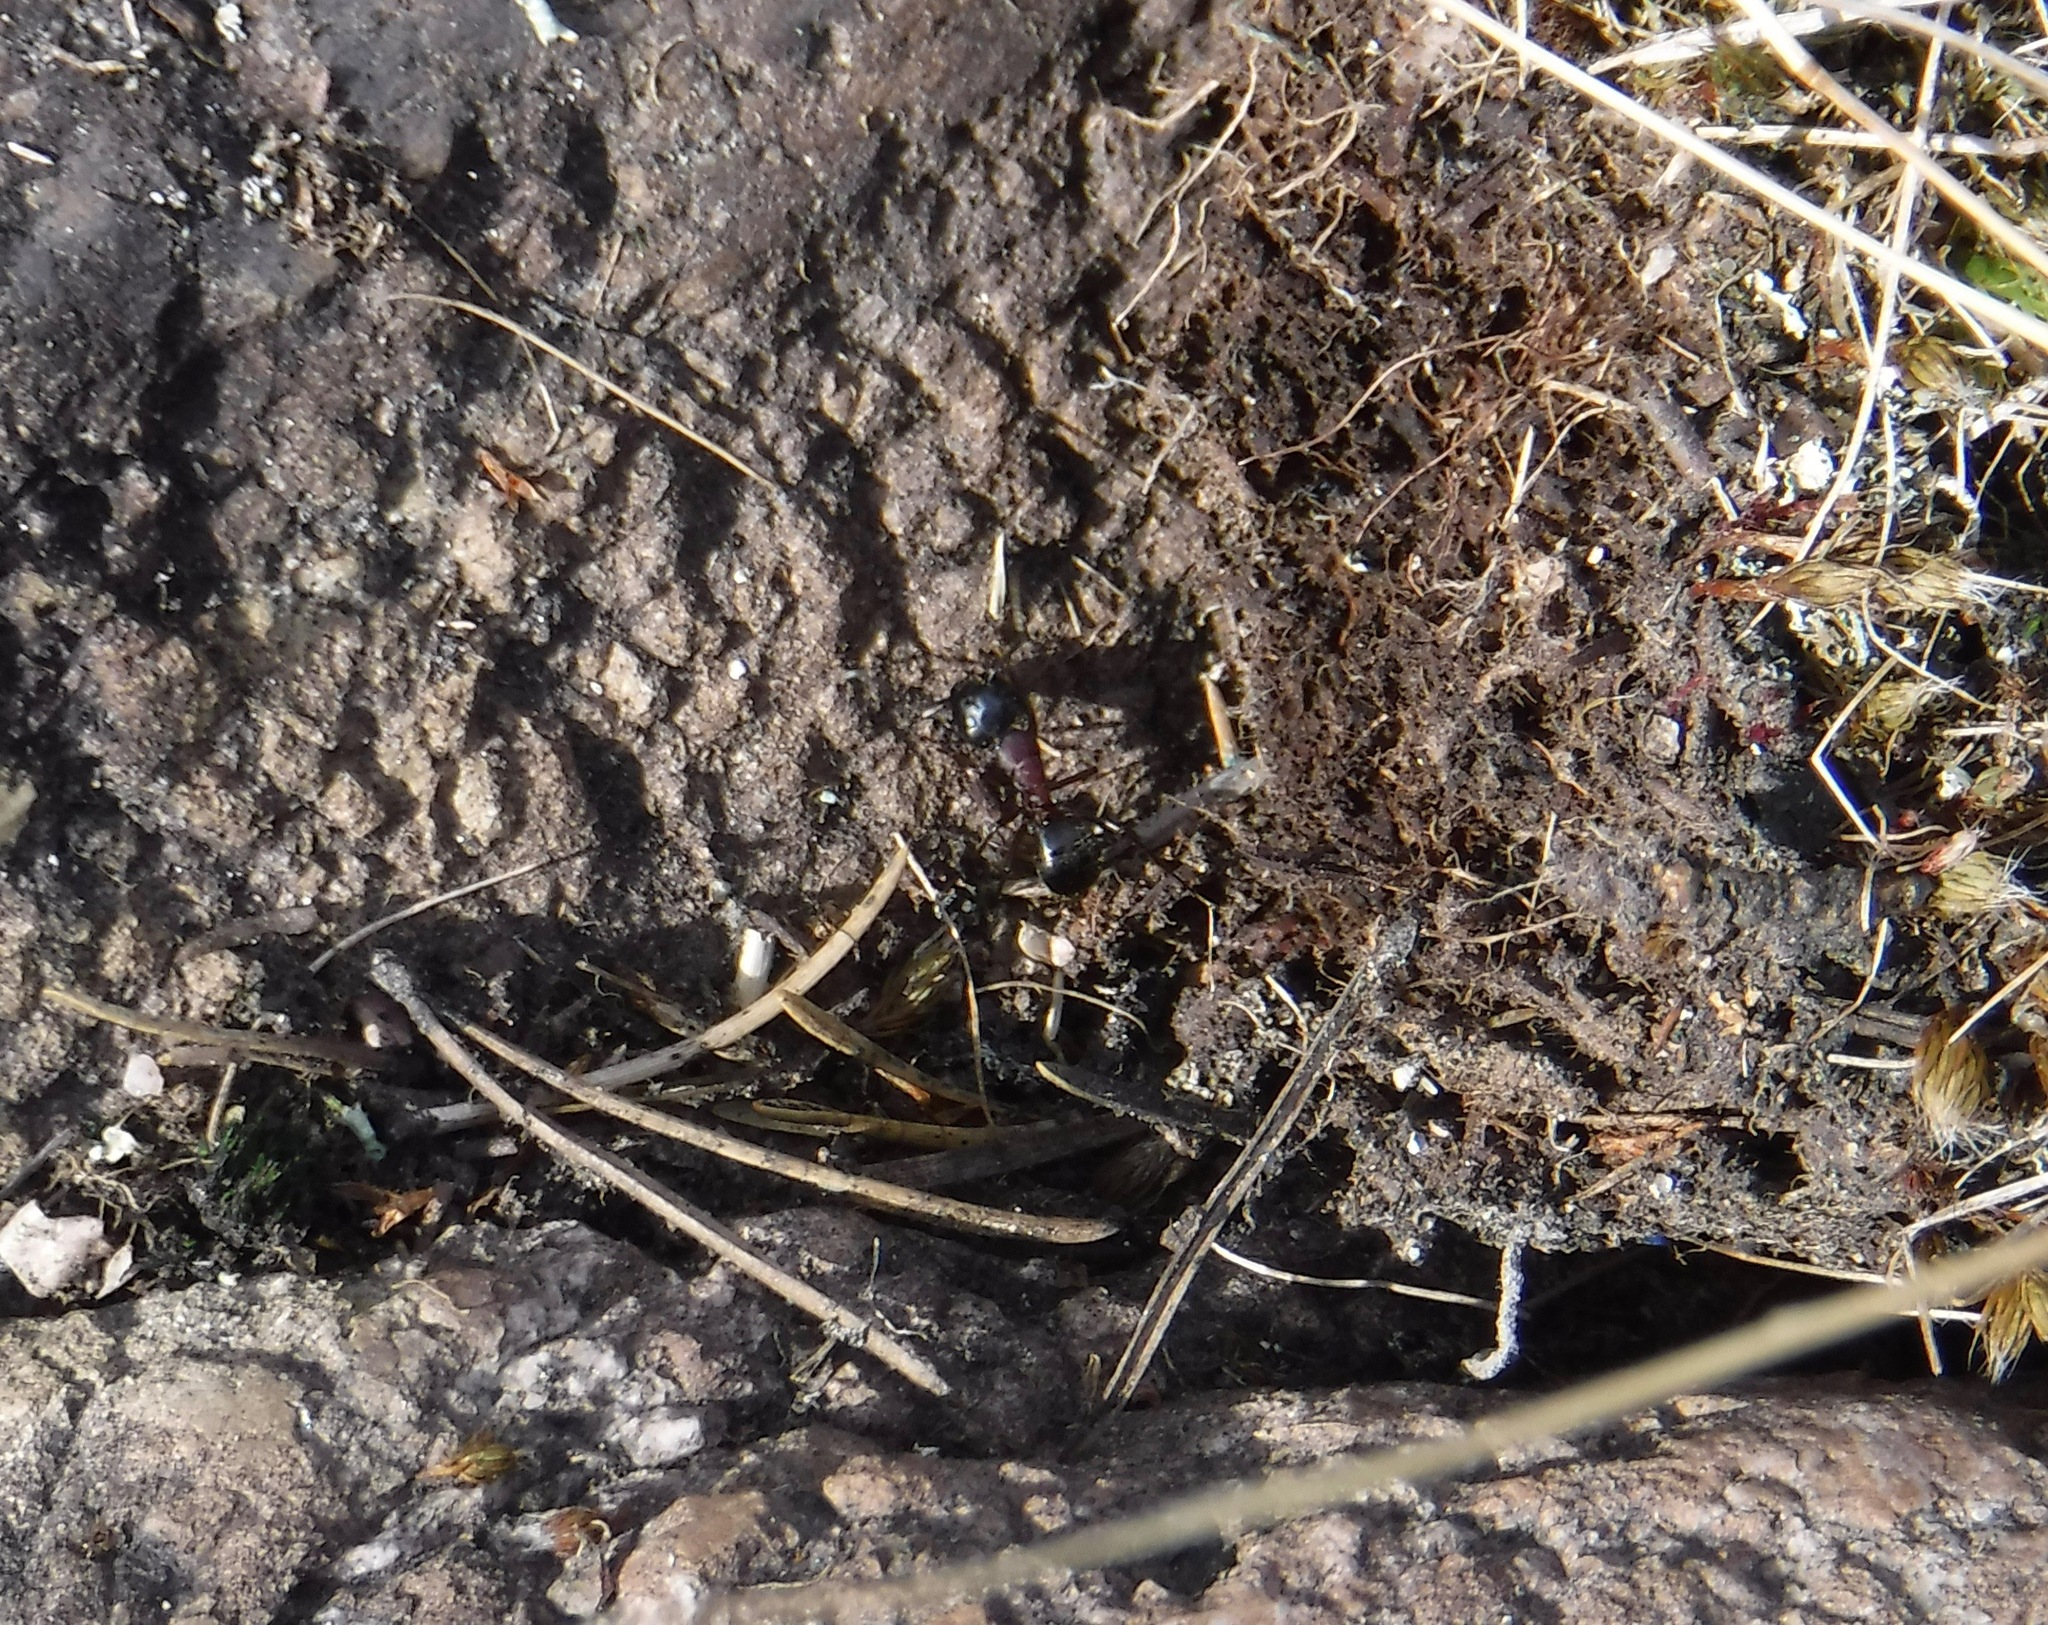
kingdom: Animalia
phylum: Arthropoda
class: Insecta
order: Hymenoptera
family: Formicidae
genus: Camponotus
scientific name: Camponotus novaeboracensis
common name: New york carpenter ant
